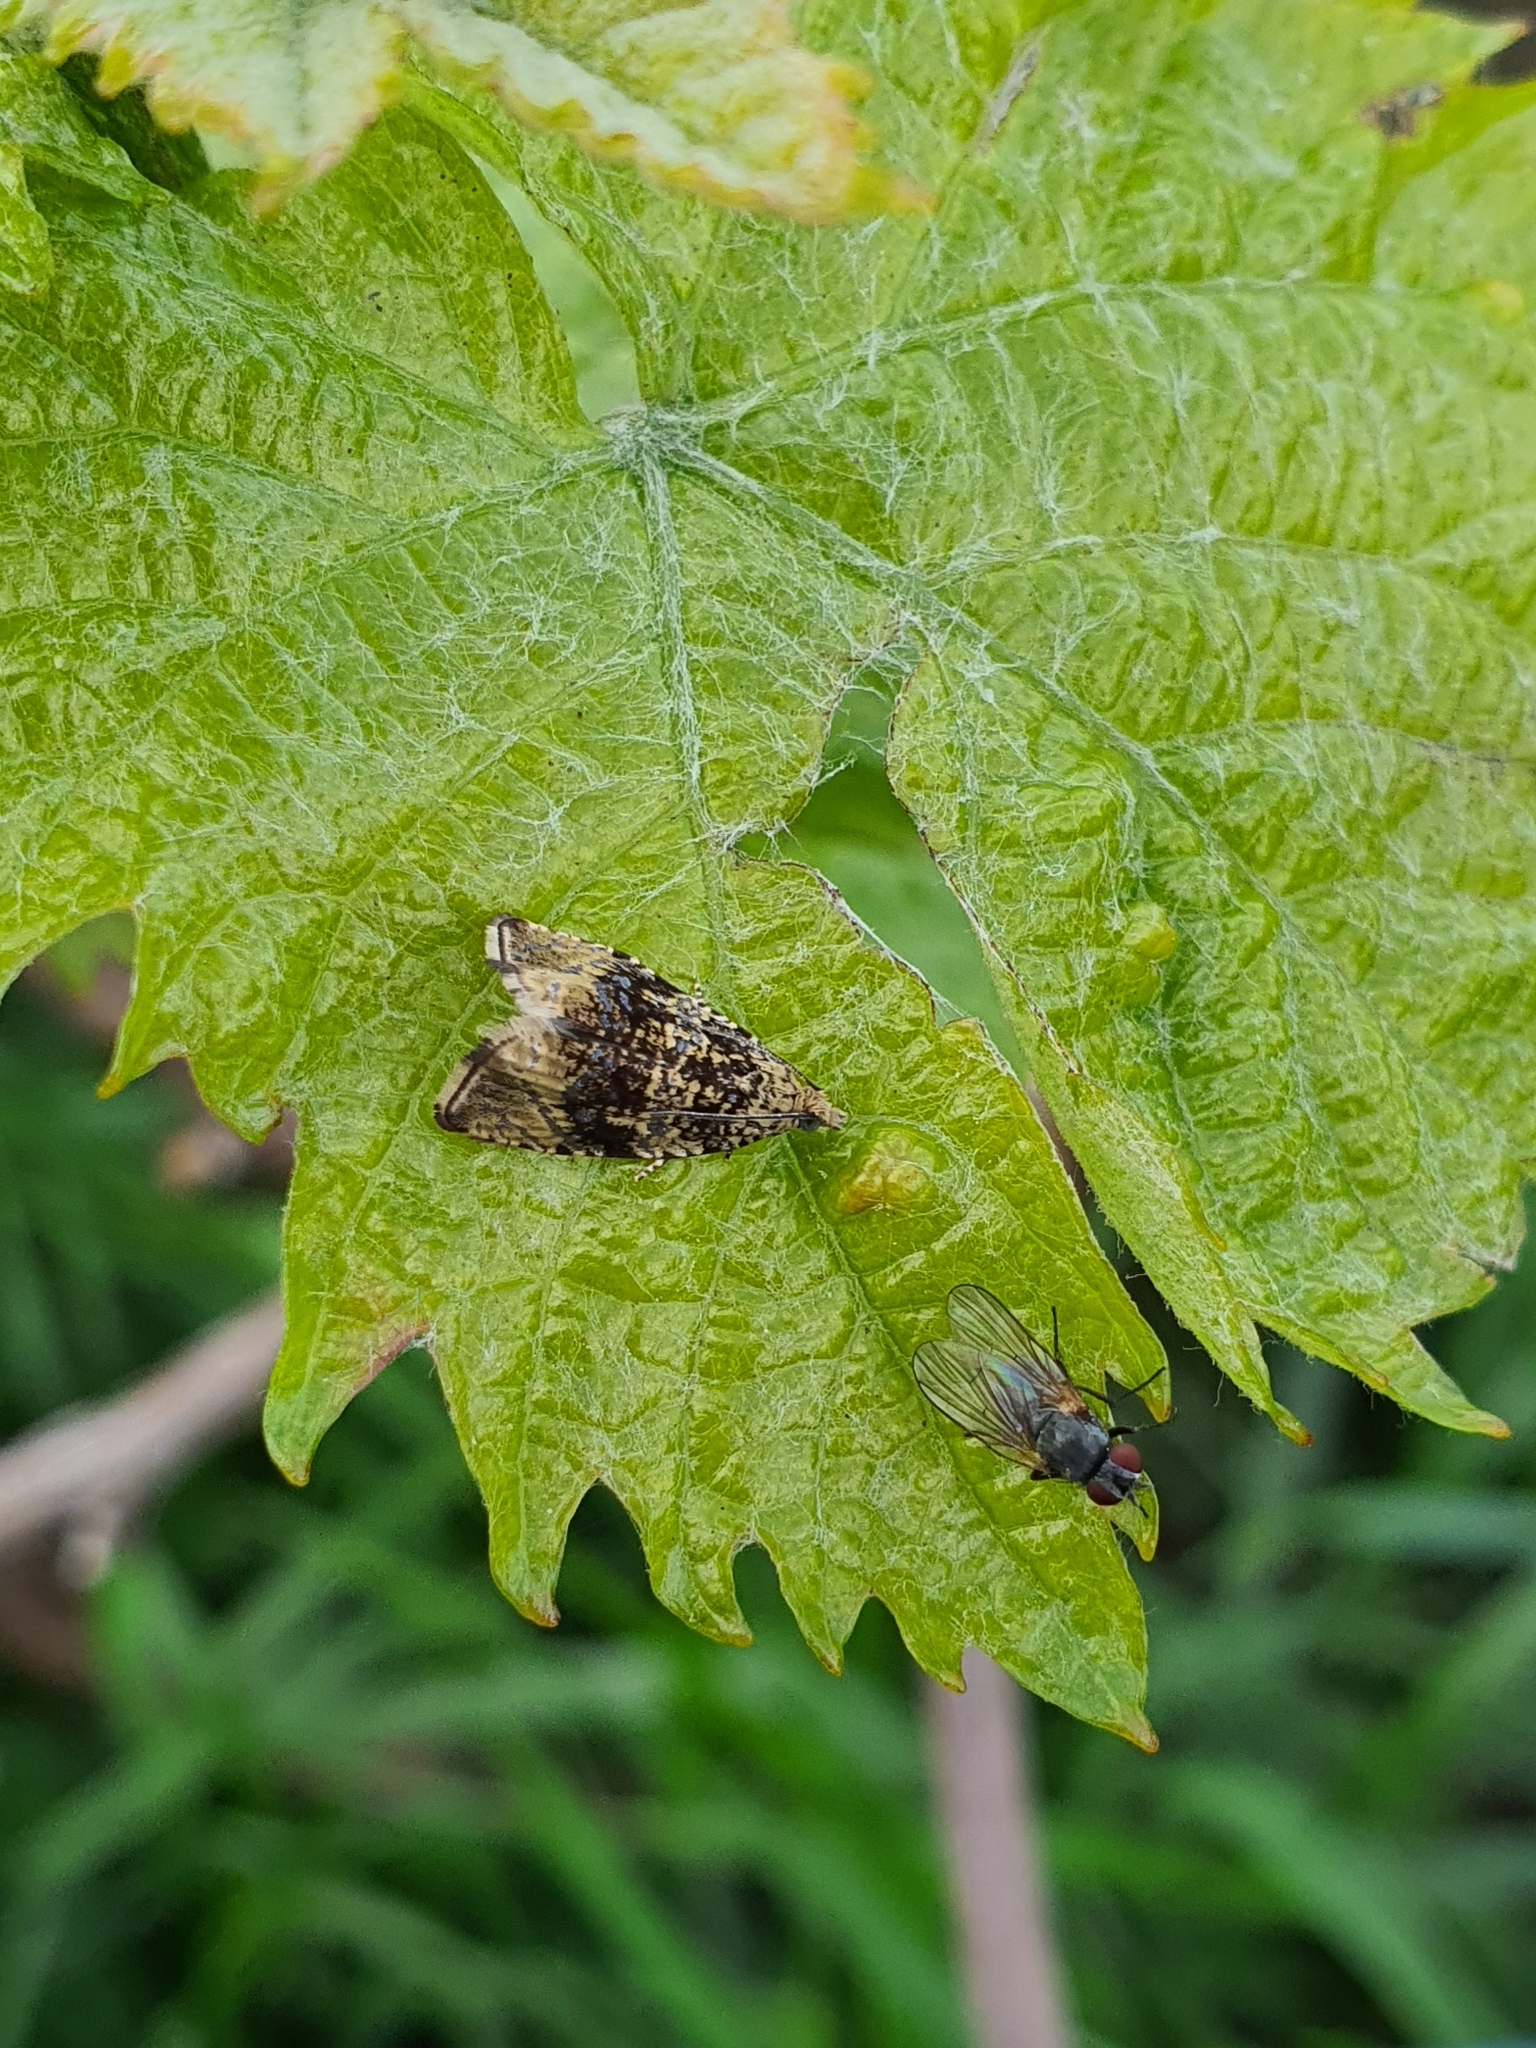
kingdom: Animalia
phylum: Arthropoda
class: Insecta
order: Lepidoptera
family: Tortricidae
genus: Syricoris
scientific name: Syricoris lacunana
